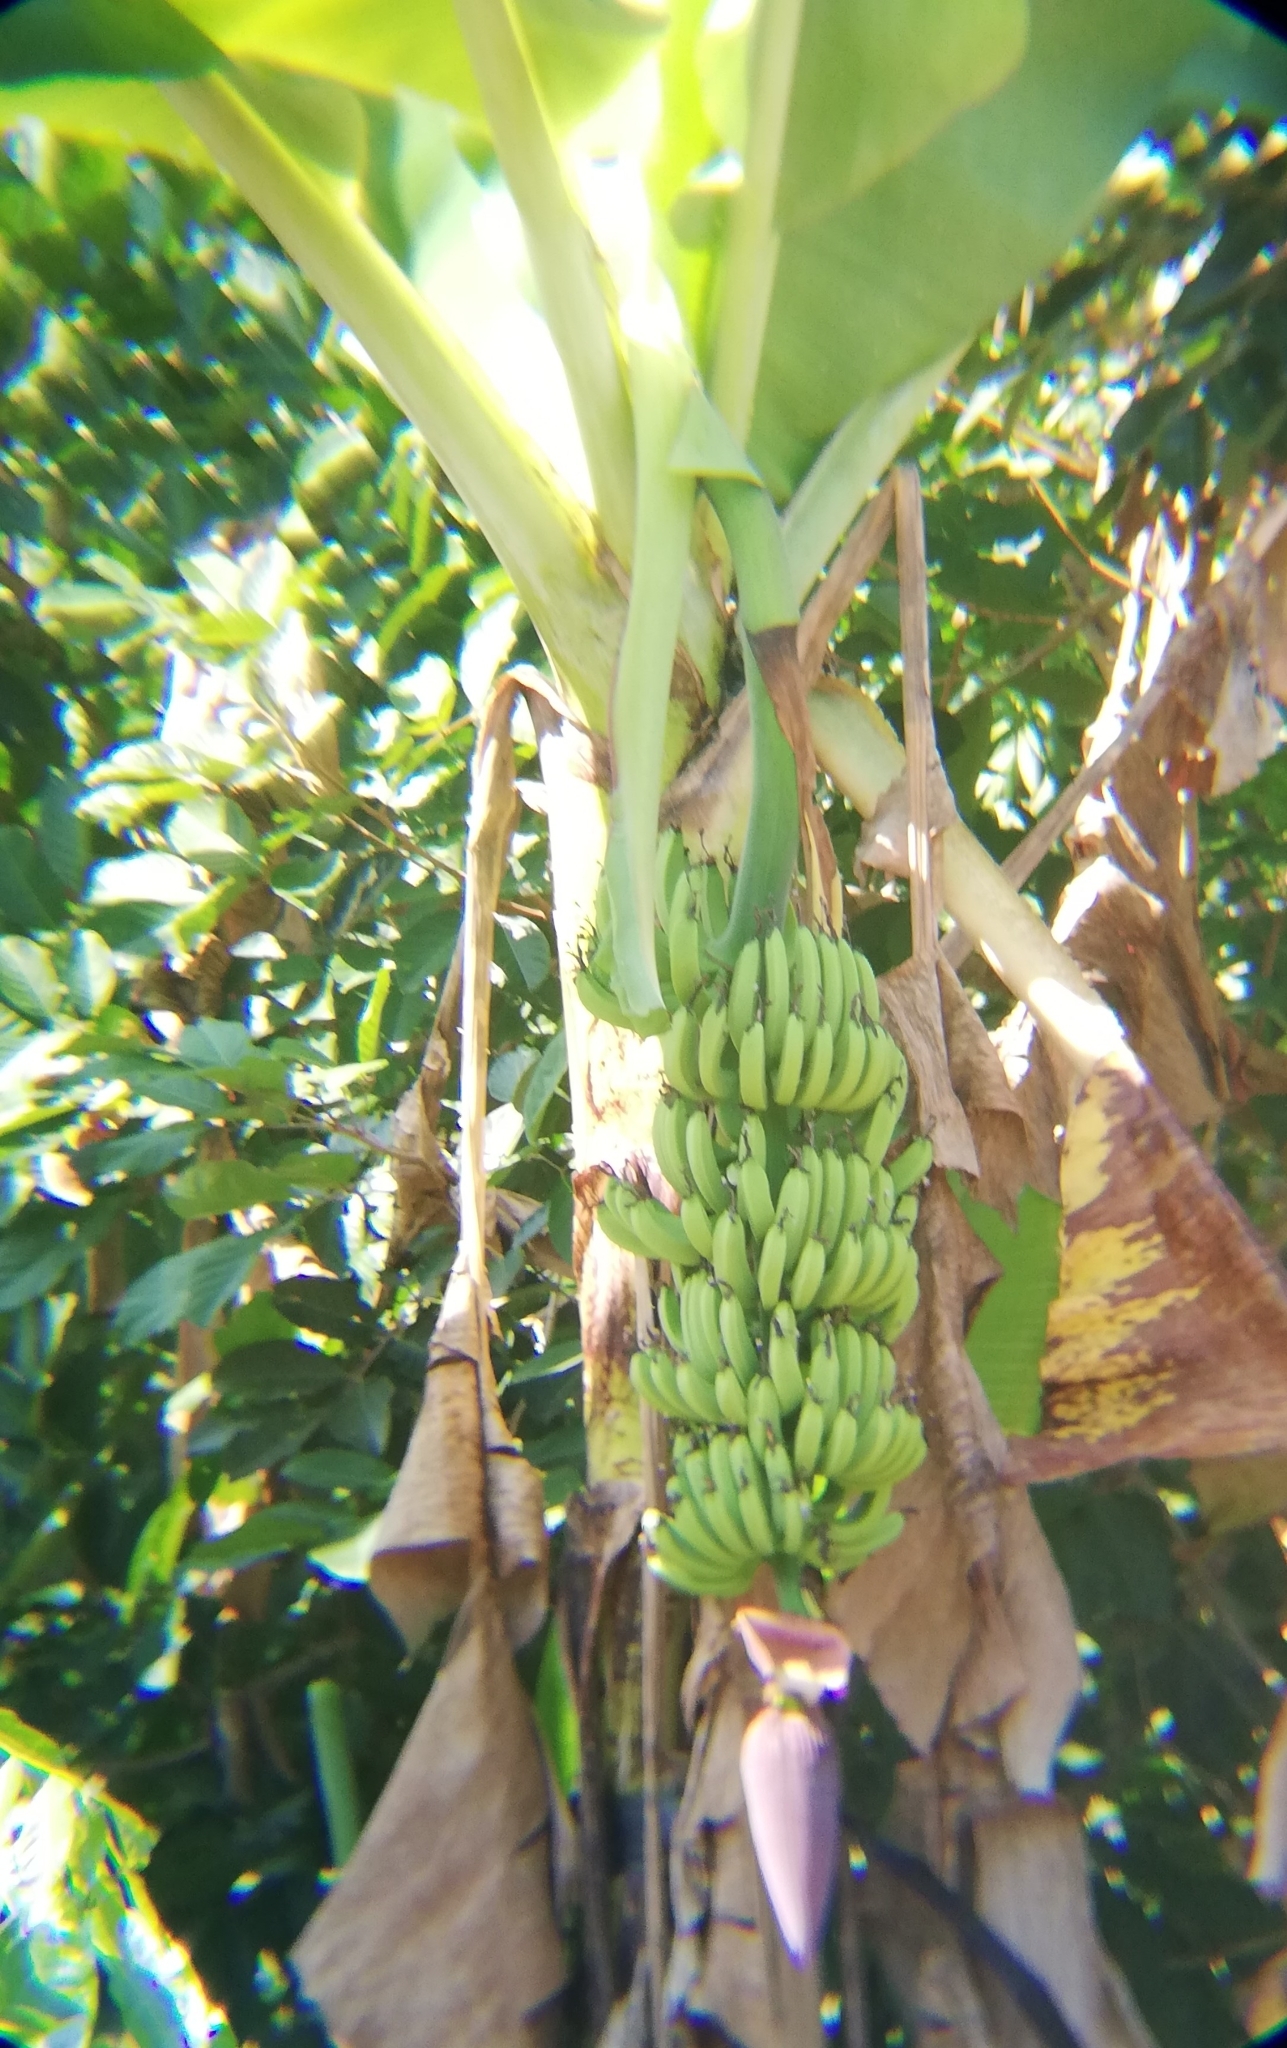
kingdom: Plantae
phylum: Tracheophyta
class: Liliopsida
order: Zingiberales
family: Musaceae
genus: Musa
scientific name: Musa acuminata
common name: Edible banana
